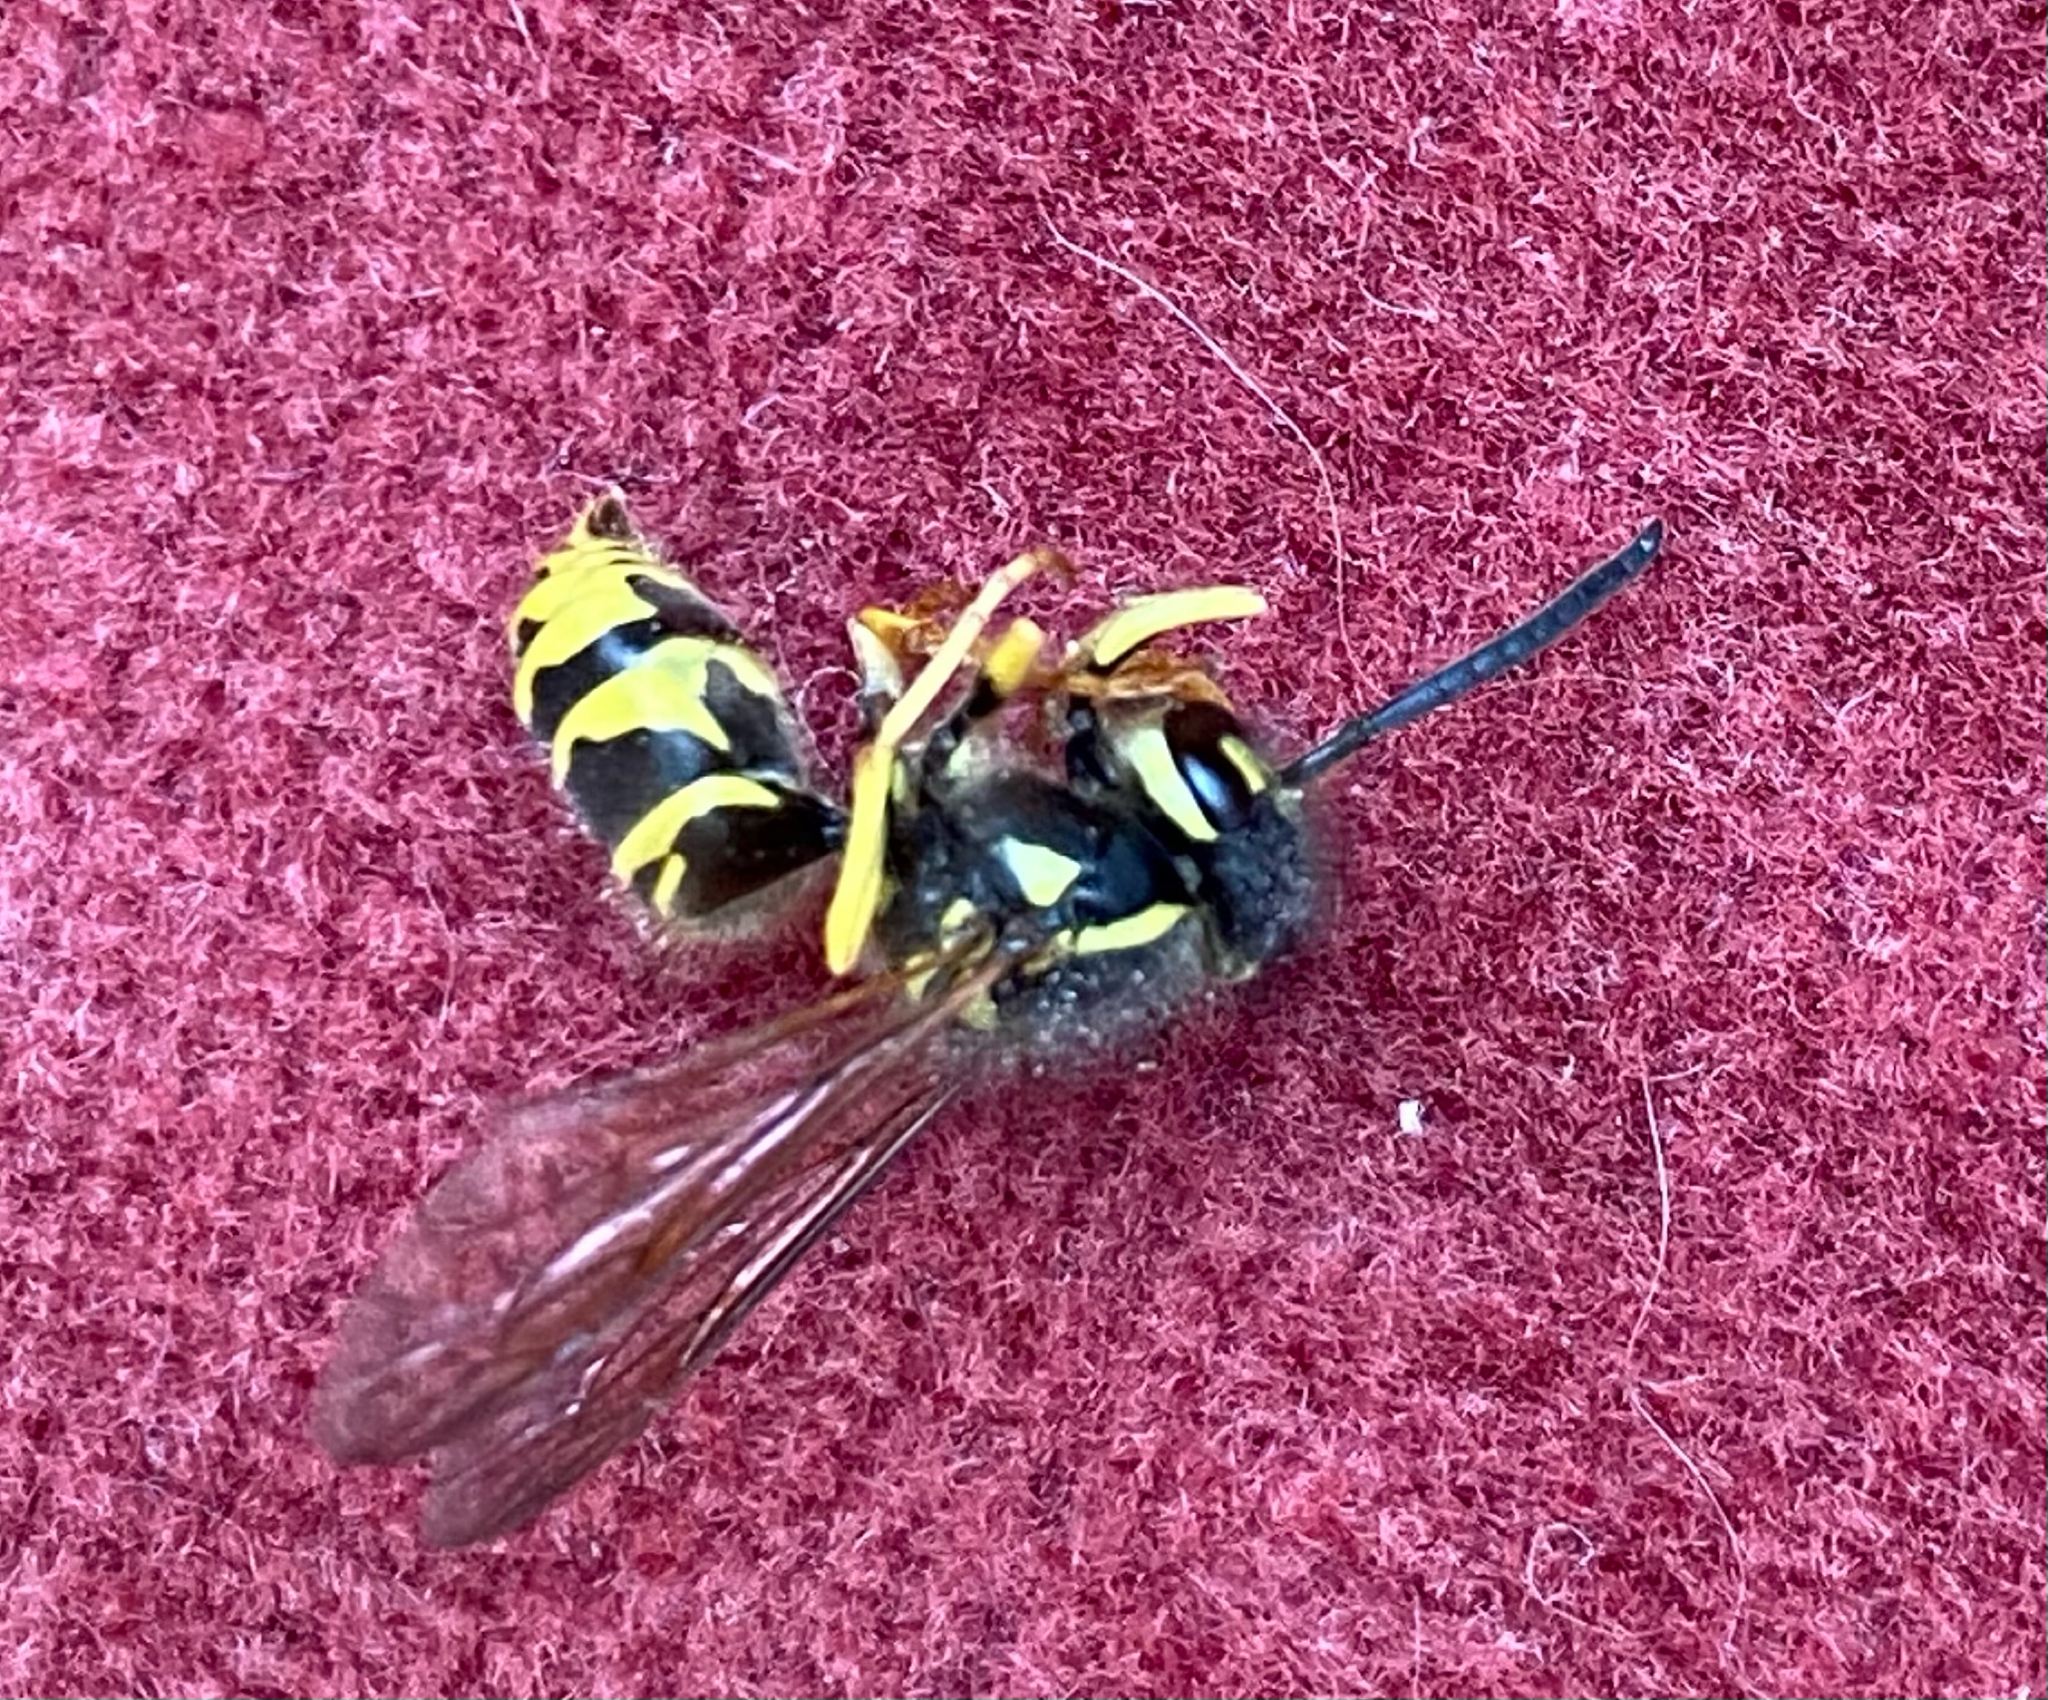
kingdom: Animalia
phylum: Arthropoda
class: Insecta
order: Hymenoptera
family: Vespidae
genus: Vespula
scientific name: Vespula maculifrons
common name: Eastern yellowjacket
